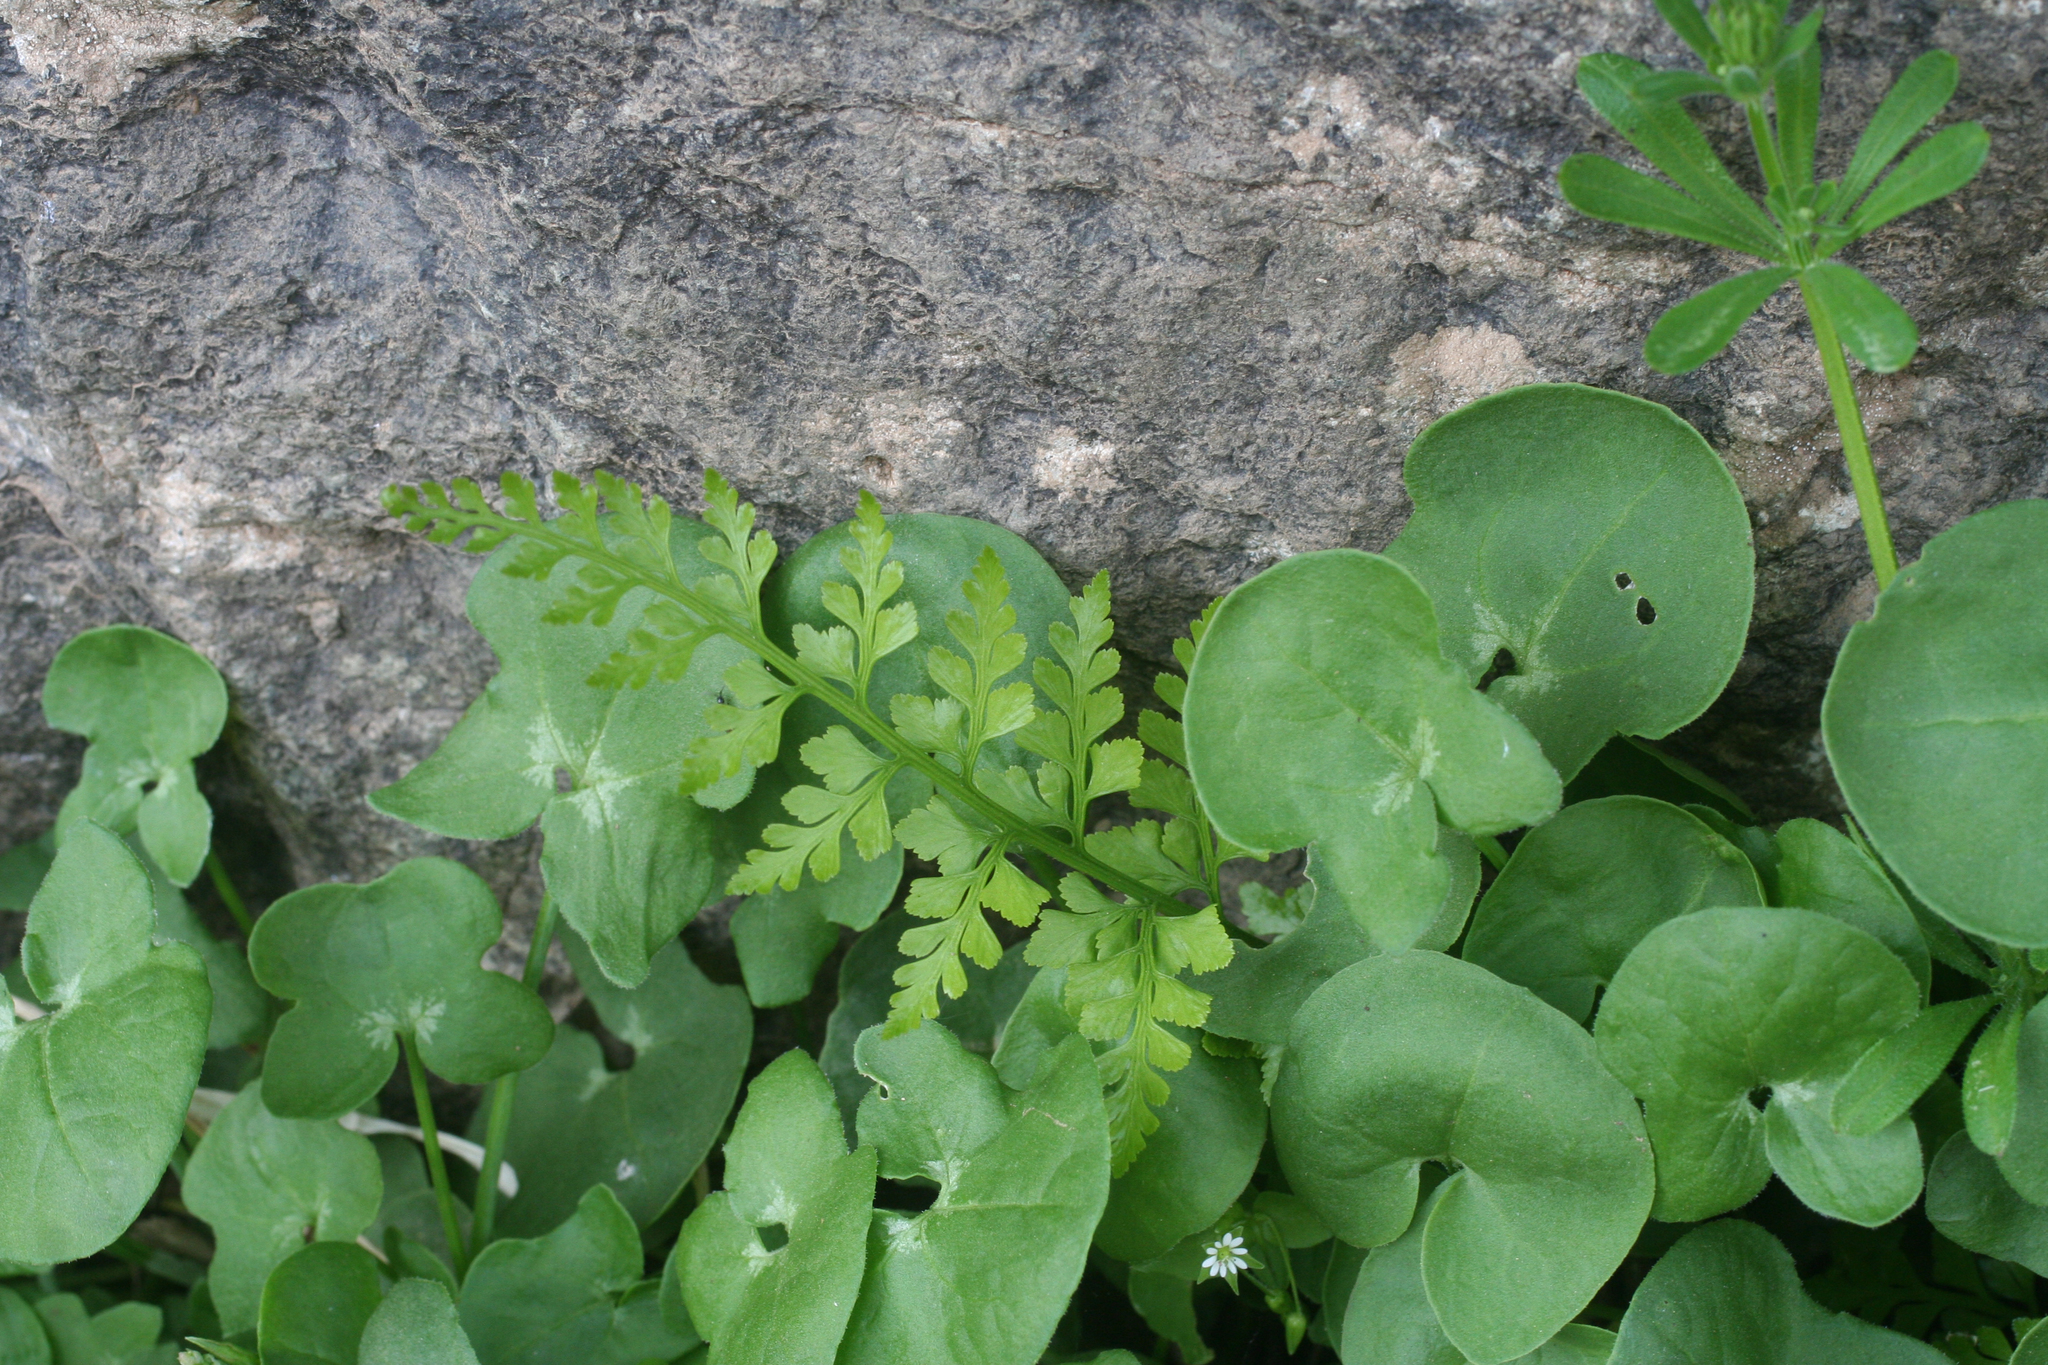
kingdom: Plantae
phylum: Tracheophyta
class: Polypodiopsida
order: Polypodiales
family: Aspleniaceae
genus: Asplenium
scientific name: Asplenium adiantum-nigrum
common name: Black spleenwort
